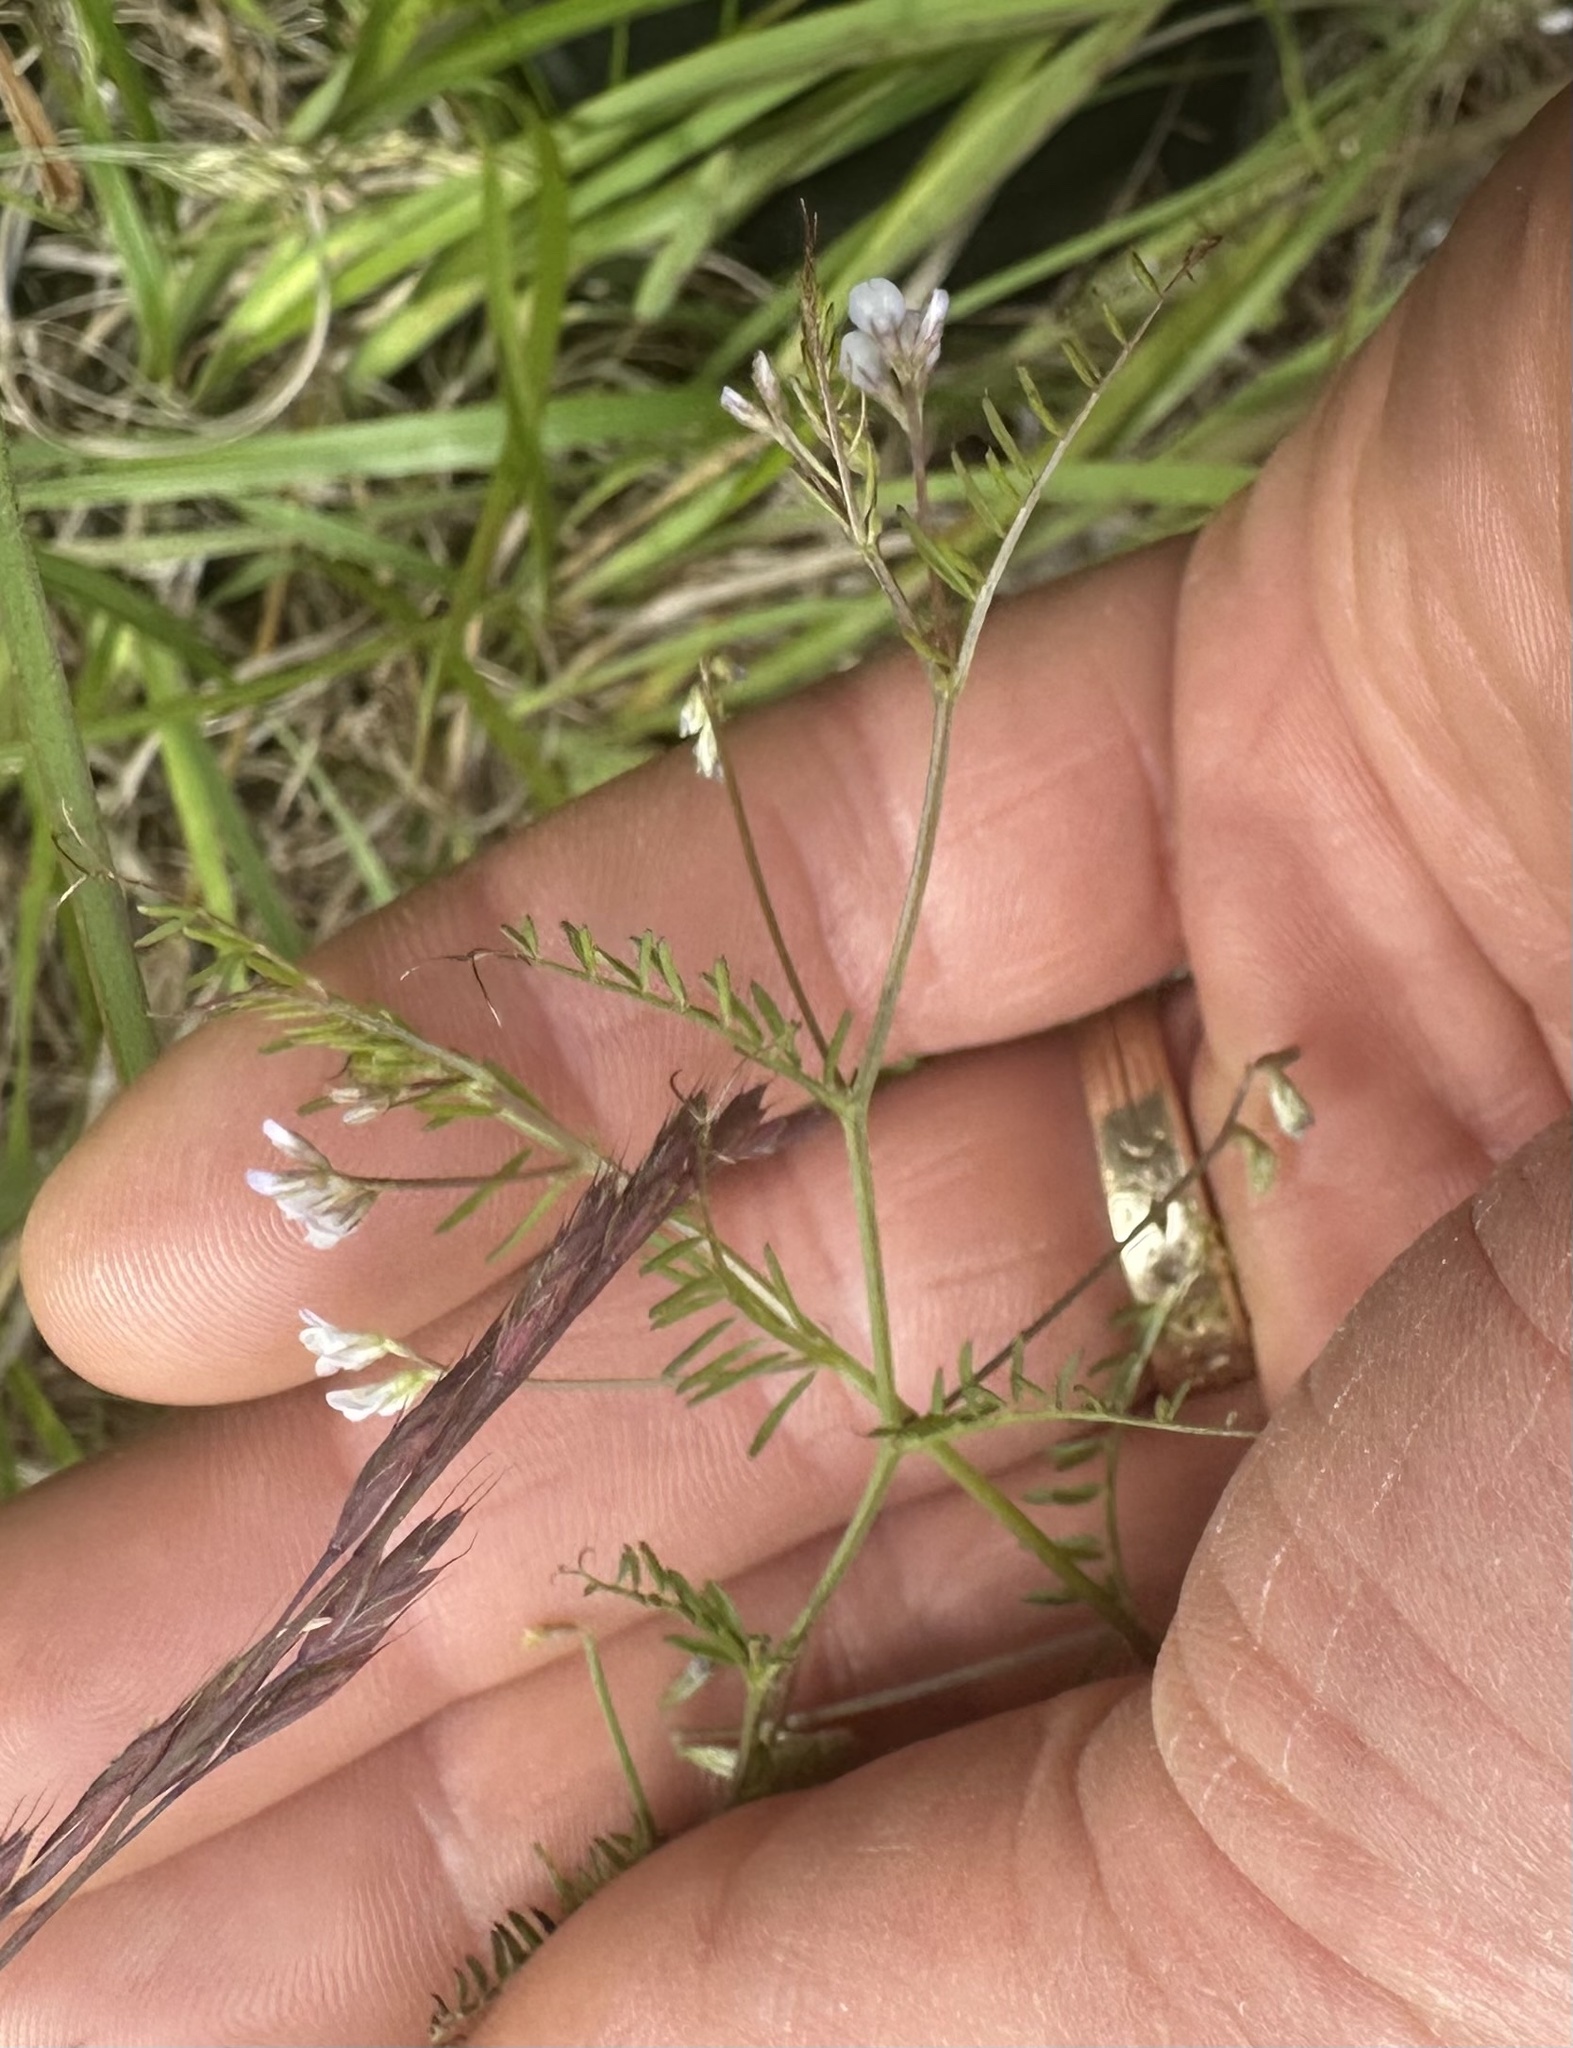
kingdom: Plantae
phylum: Tracheophyta
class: Magnoliopsida
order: Fabales
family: Fabaceae
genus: Vicia
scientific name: Vicia hirsuta
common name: Tiny vetch
